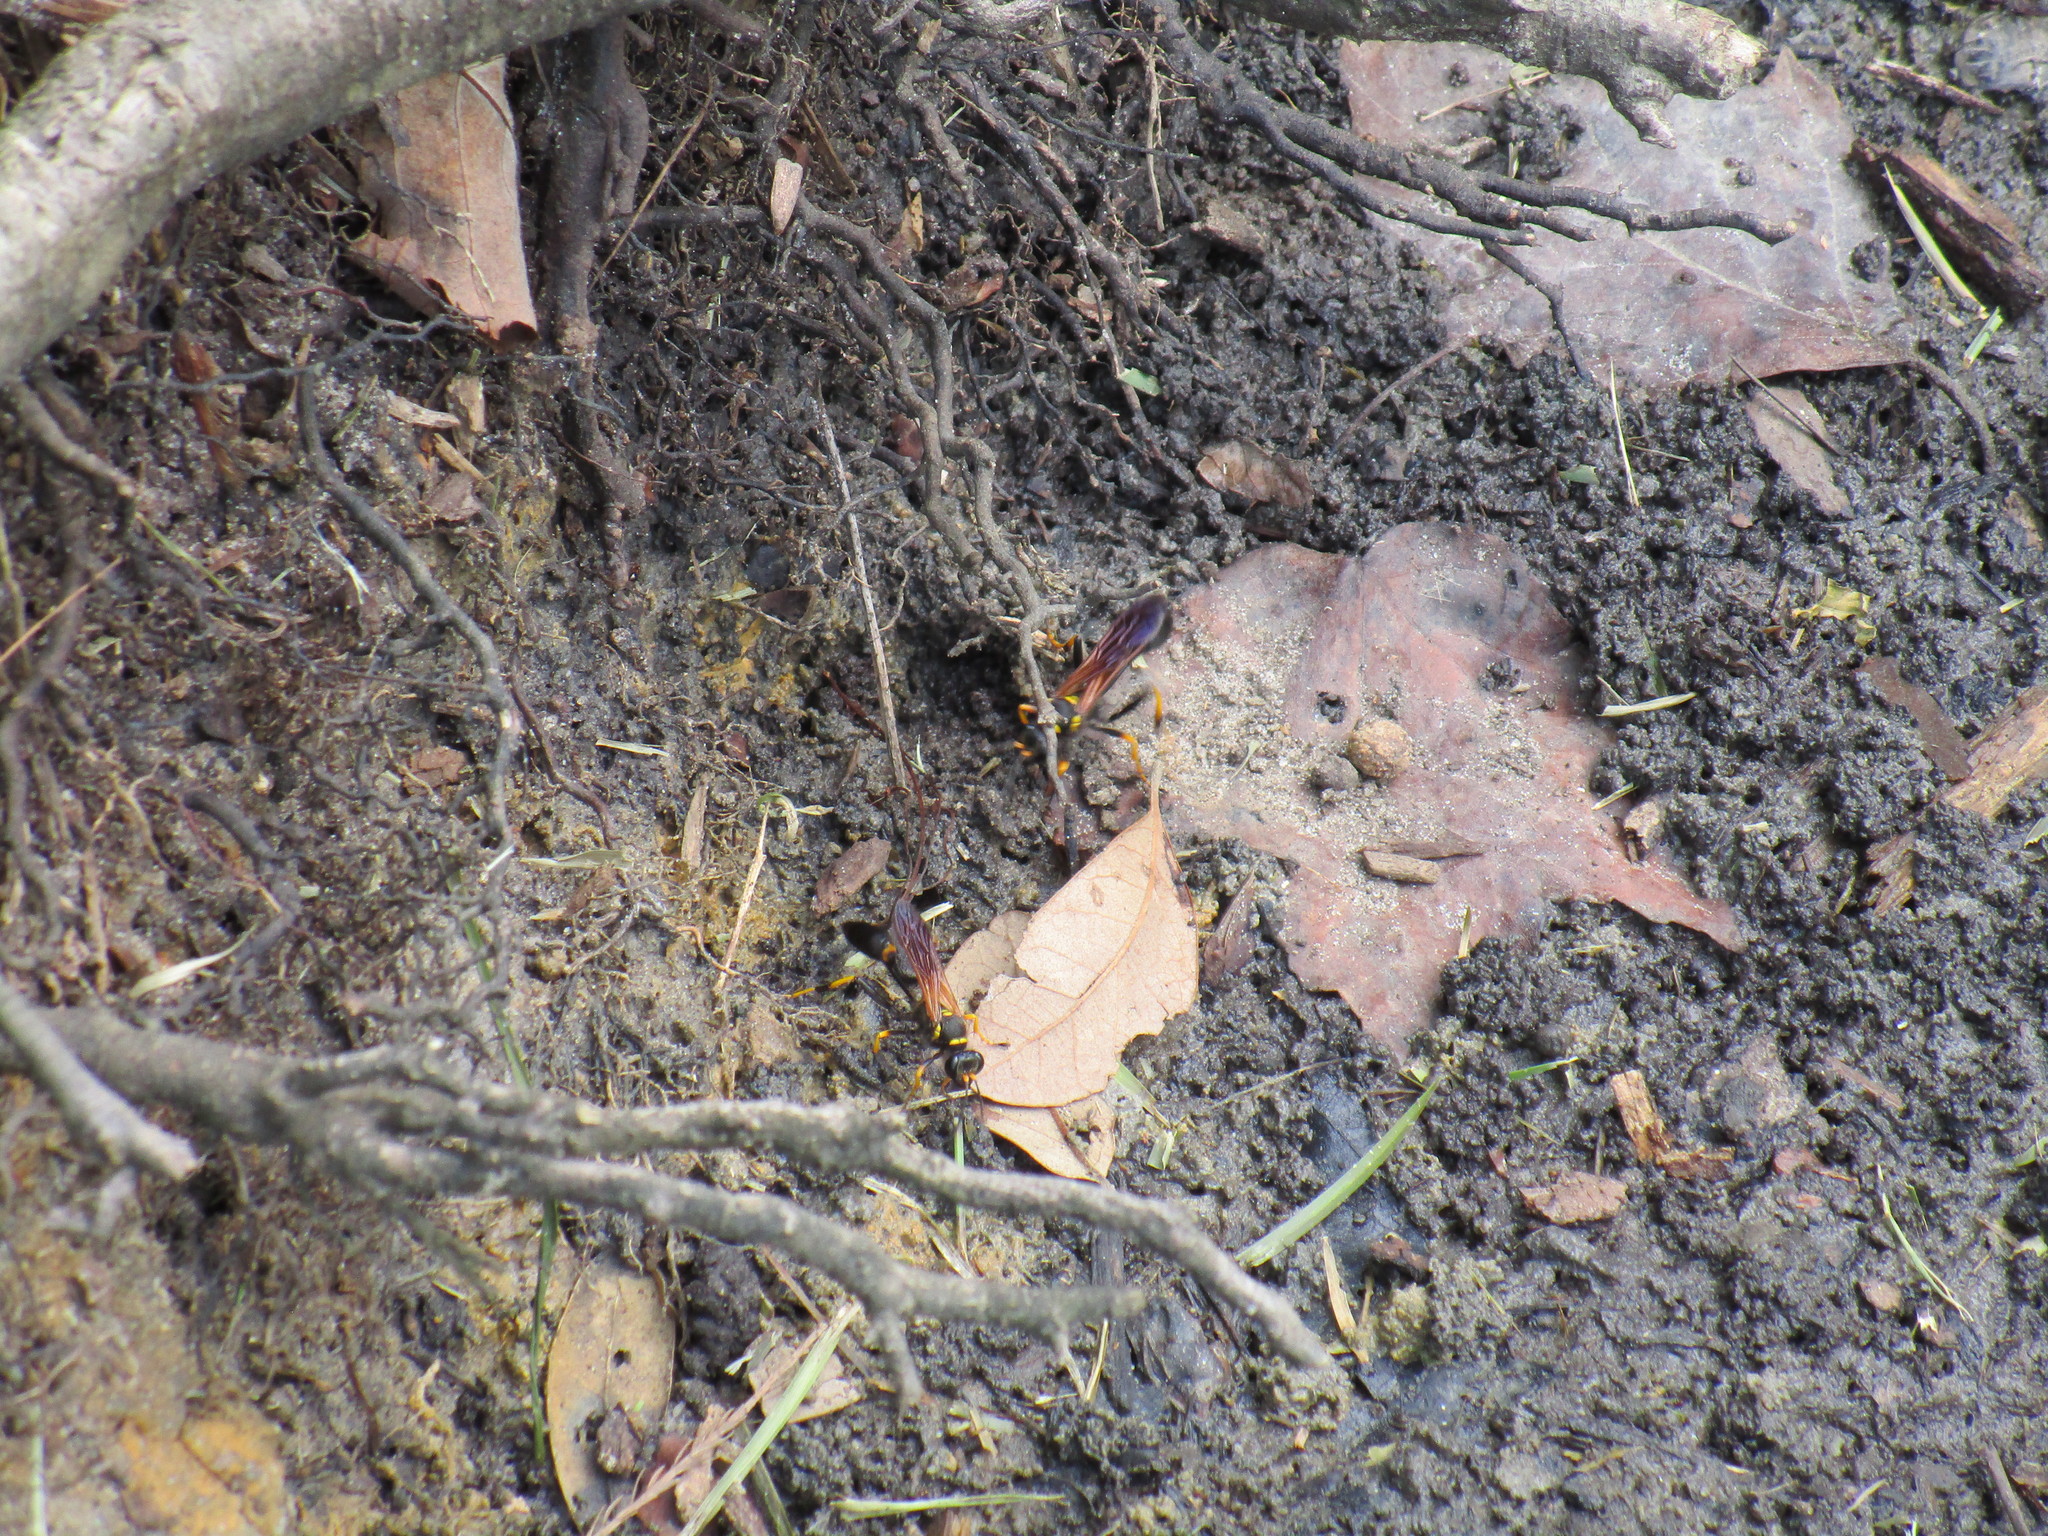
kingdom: Animalia
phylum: Arthropoda
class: Insecta
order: Hymenoptera
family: Sphecidae
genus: Sceliphron
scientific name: Sceliphron caementarium
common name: Mud dauber
